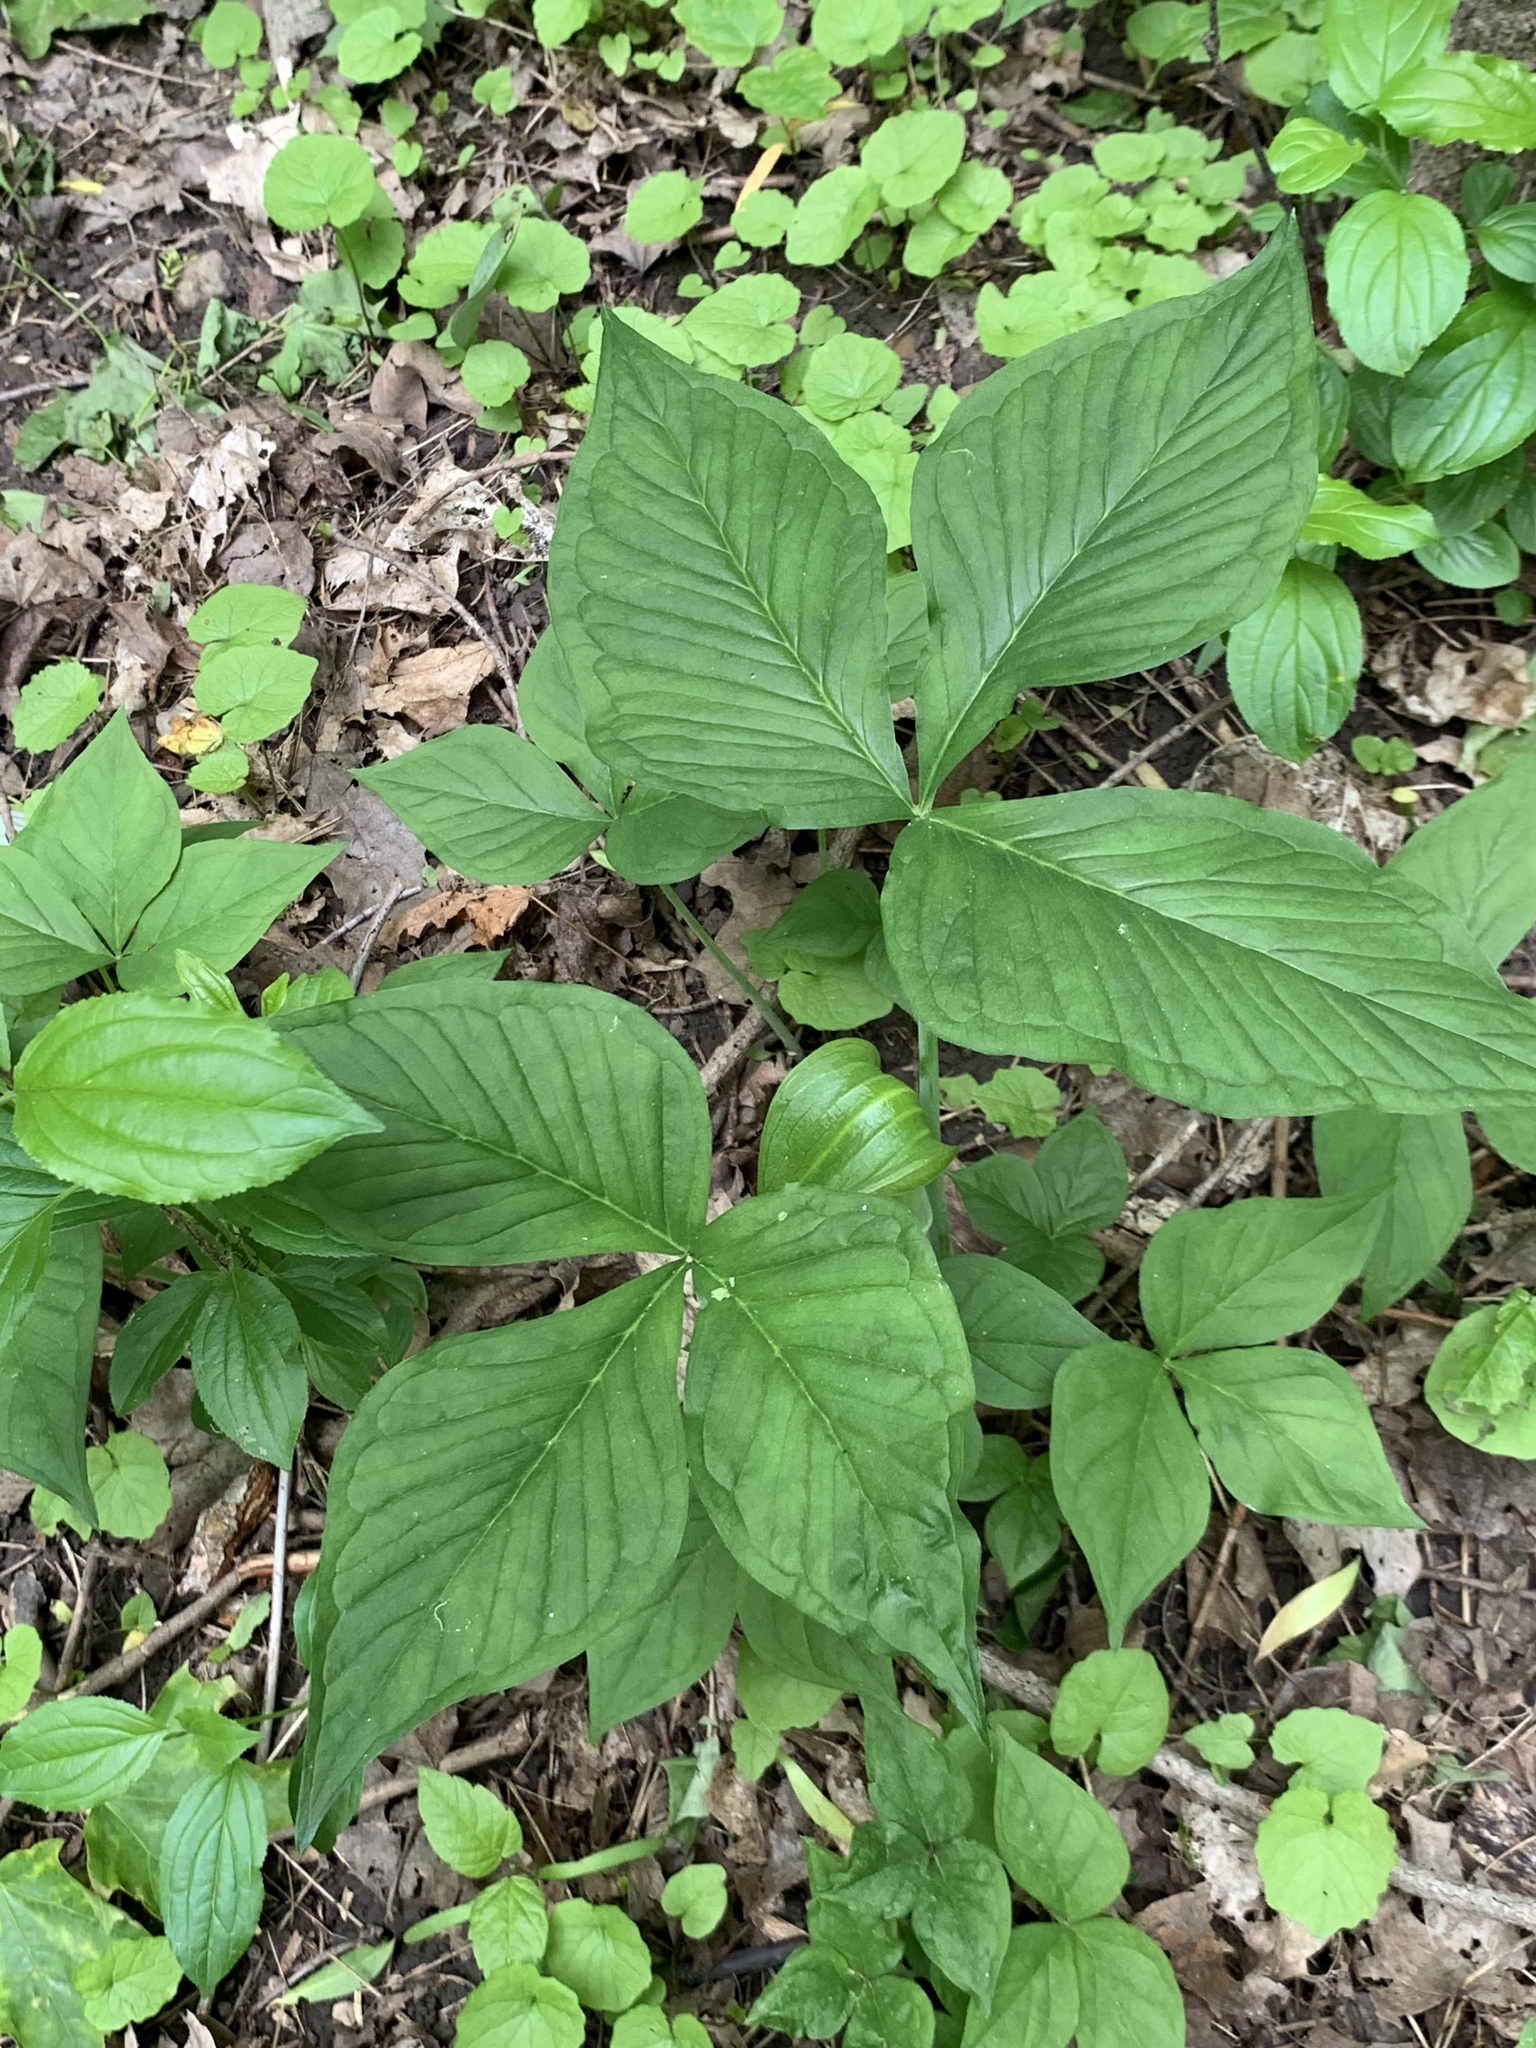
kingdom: Plantae
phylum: Tracheophyta
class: Liliopsida
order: Alismatales
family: Araceae
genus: Arisaema
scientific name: Arisaema triphyllum
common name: Jack-in-the-pulpit
